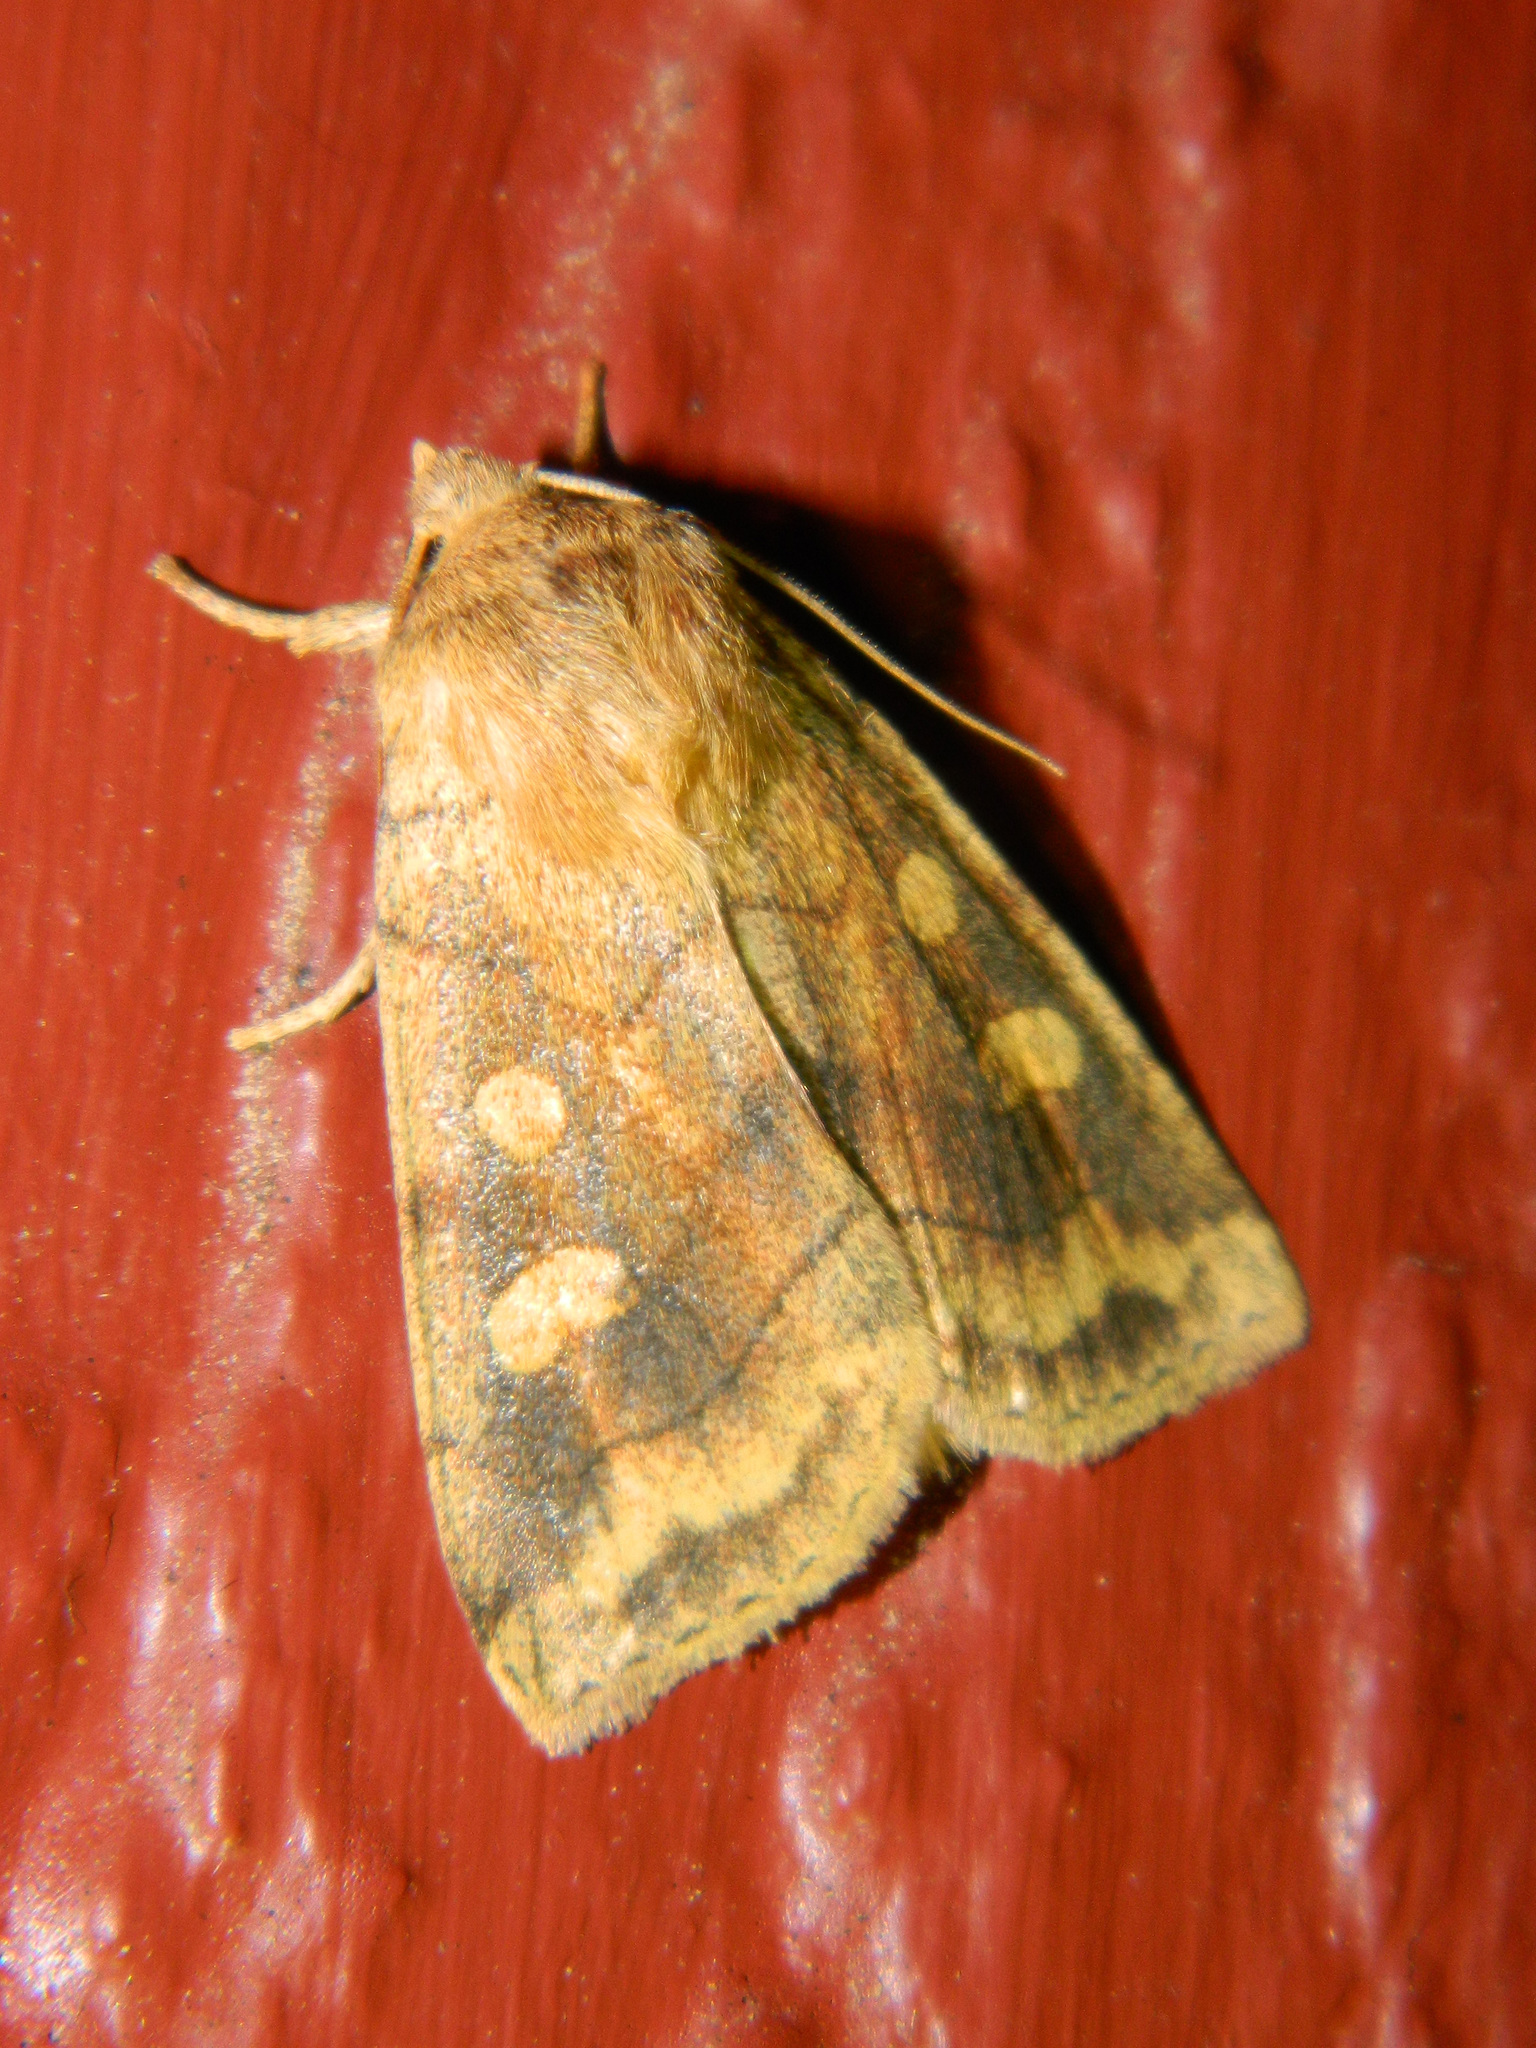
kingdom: Animalia
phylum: Arthropoda
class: Insecta
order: Lepidoptera
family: Noctuidae
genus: Enargia
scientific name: Enargia decolor
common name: Aspen twoleaf tier moth
